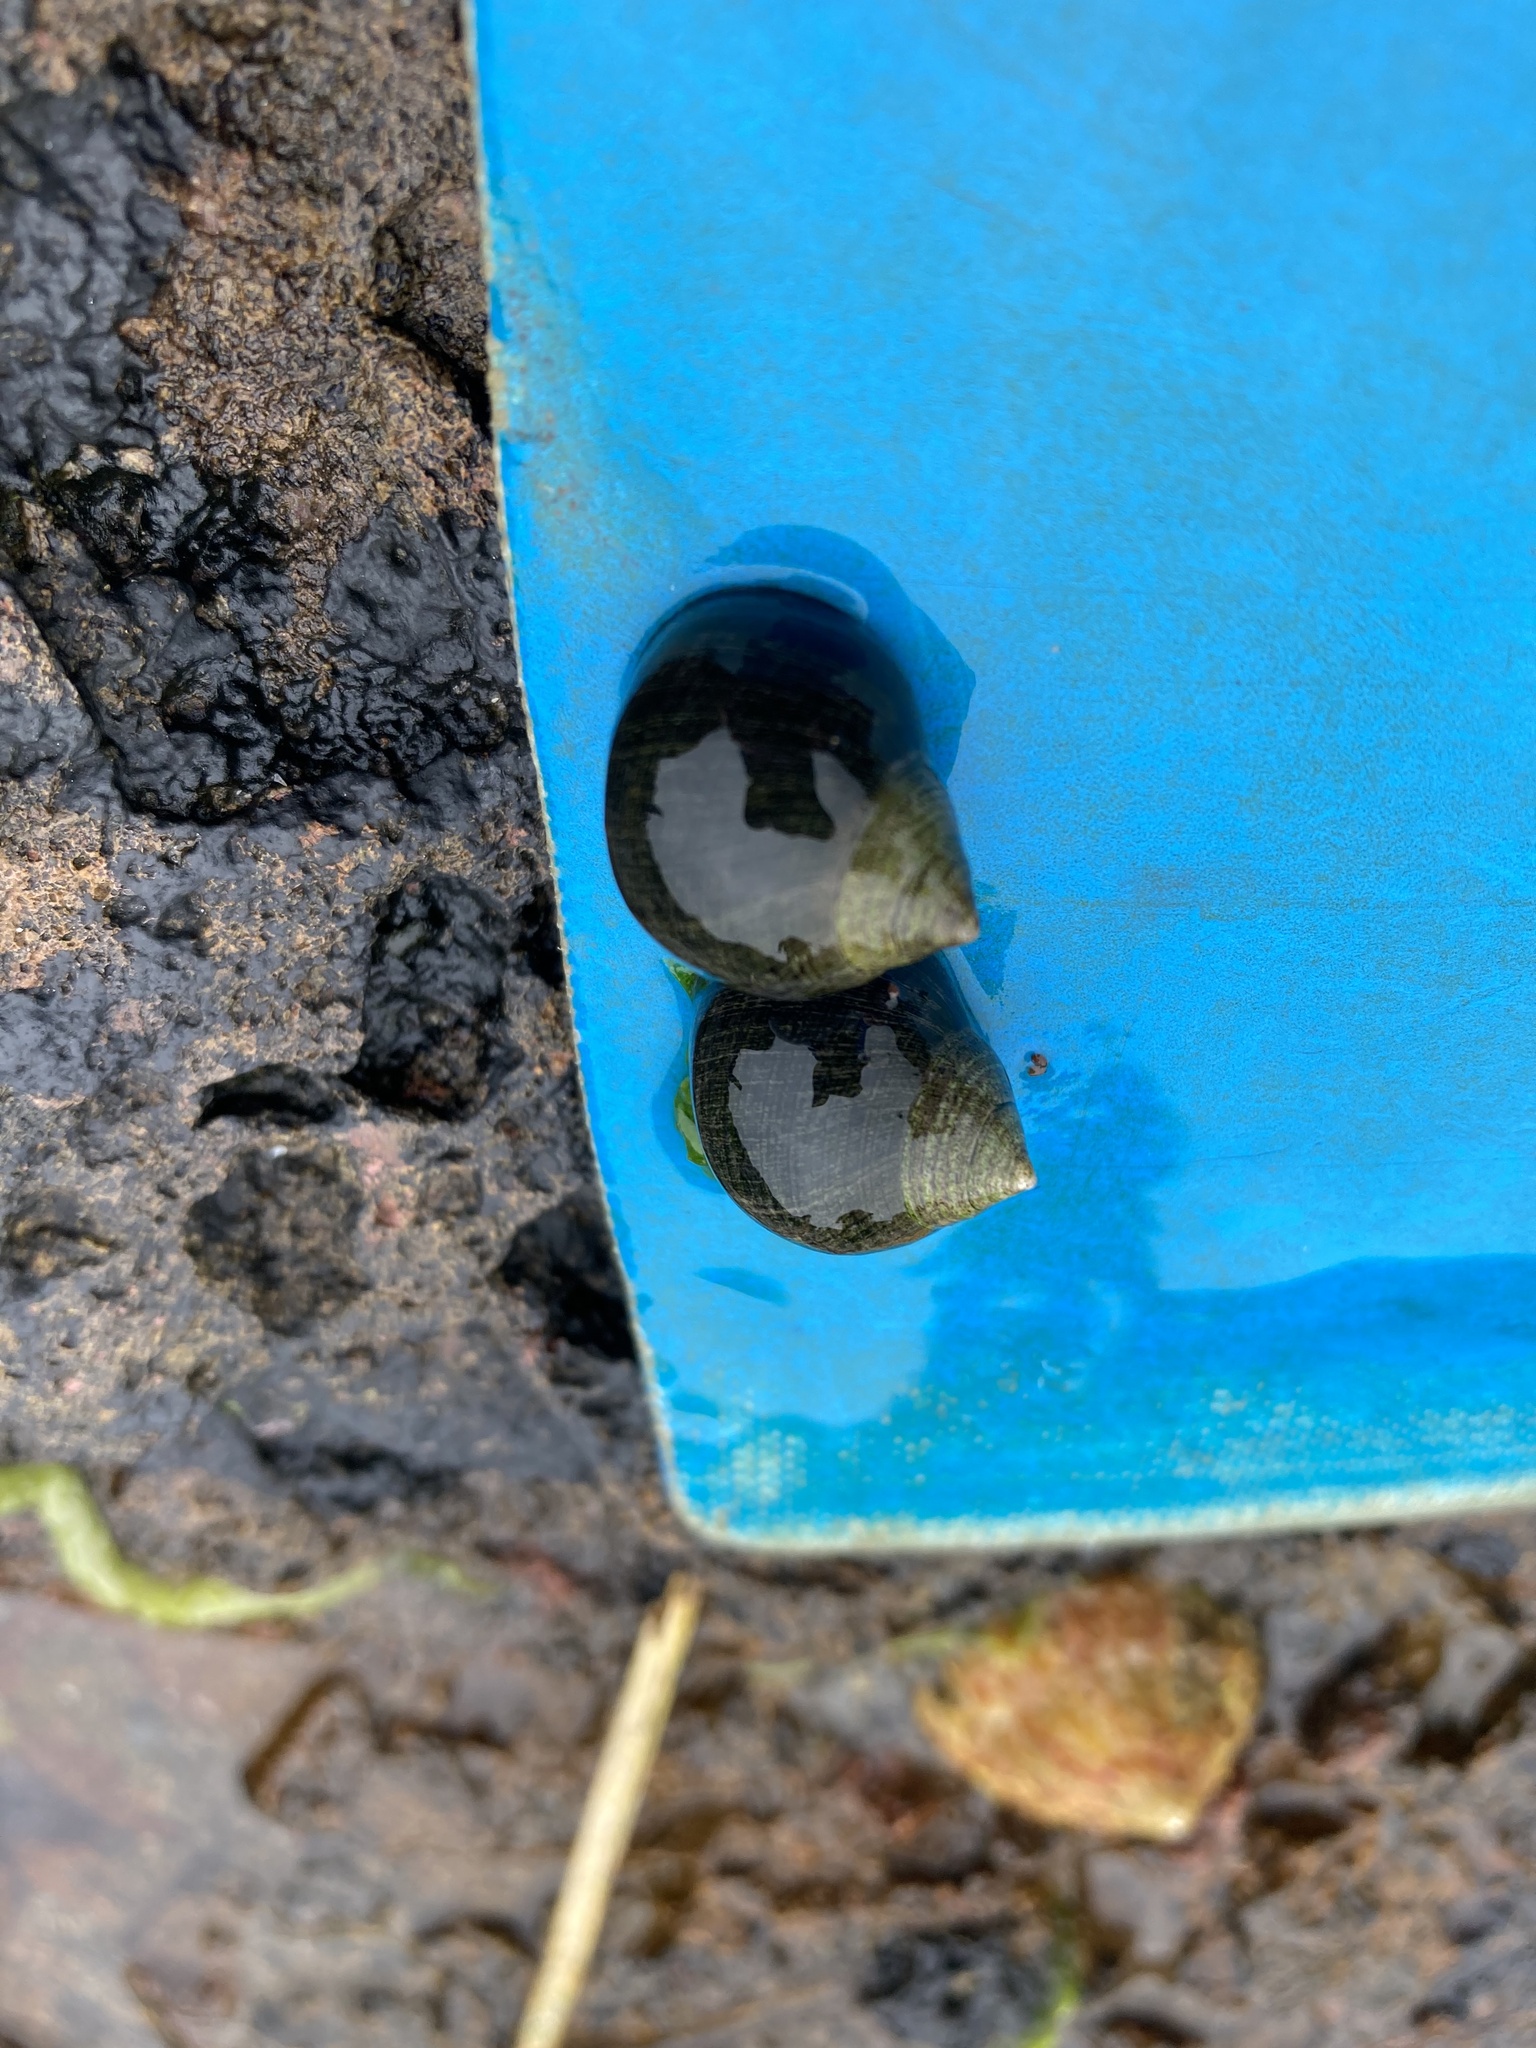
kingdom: Animalia
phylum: Mollusca
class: Gastropoda
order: Littorinimorpha
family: Littorinidae
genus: Littorina
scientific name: Littorina littorea
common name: Common periwinkle
